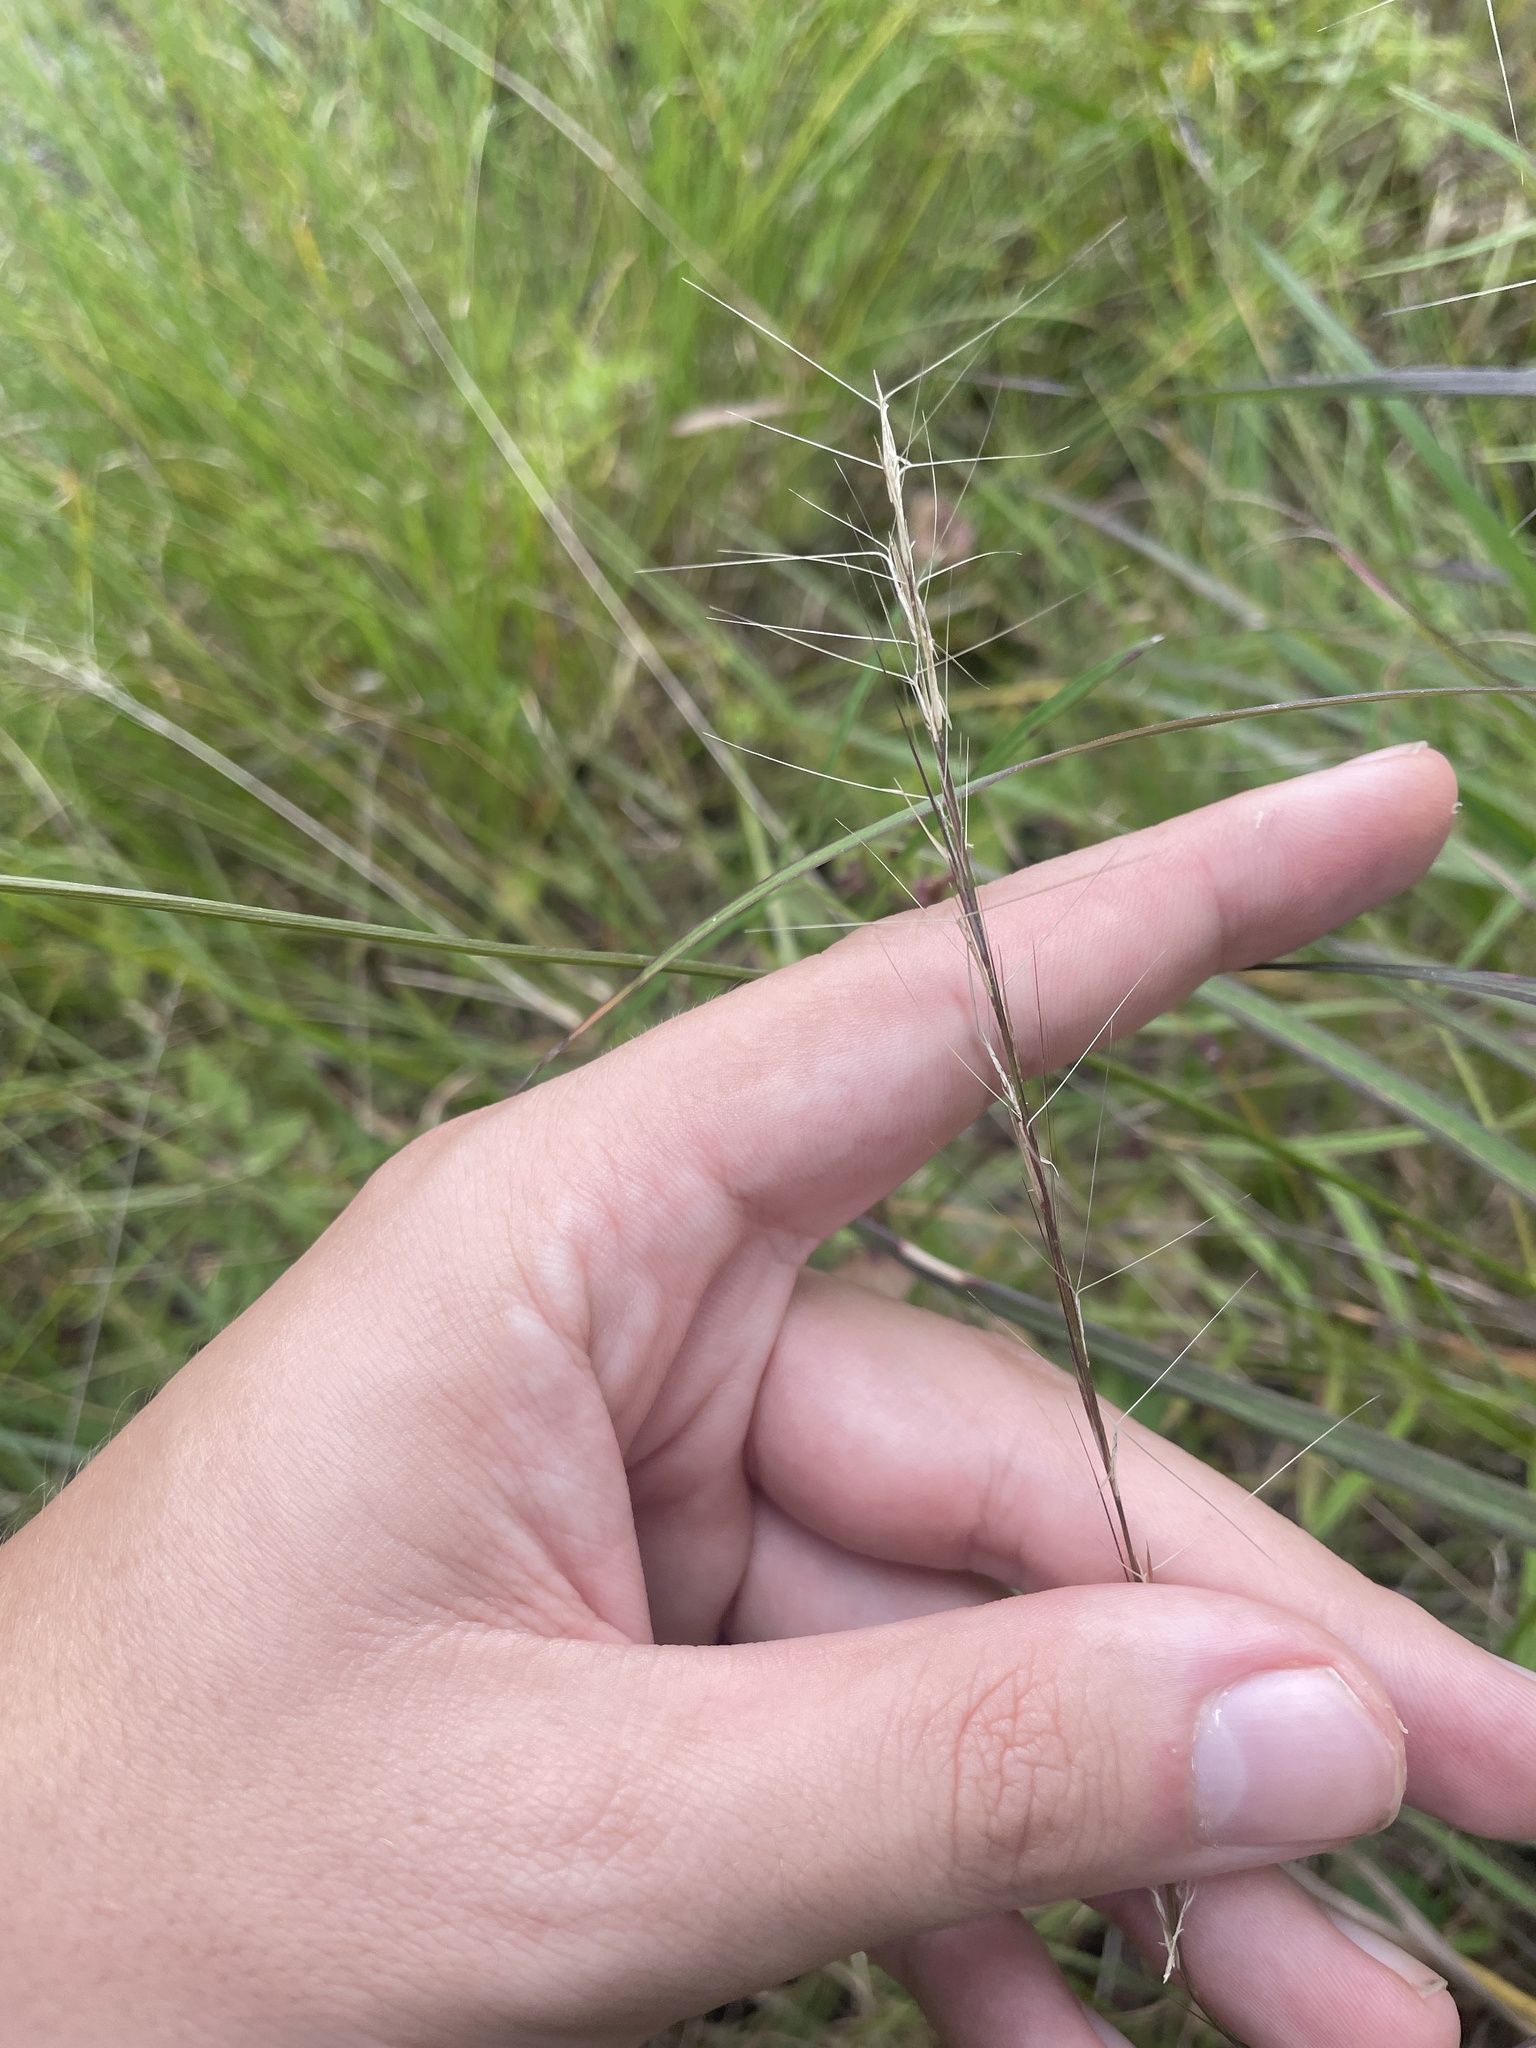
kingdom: Plantae
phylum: Tracheophyta
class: Liliopsida
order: Poales
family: Poaceae
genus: Aristida
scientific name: Aristida purpurascens
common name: Arrow-feather
